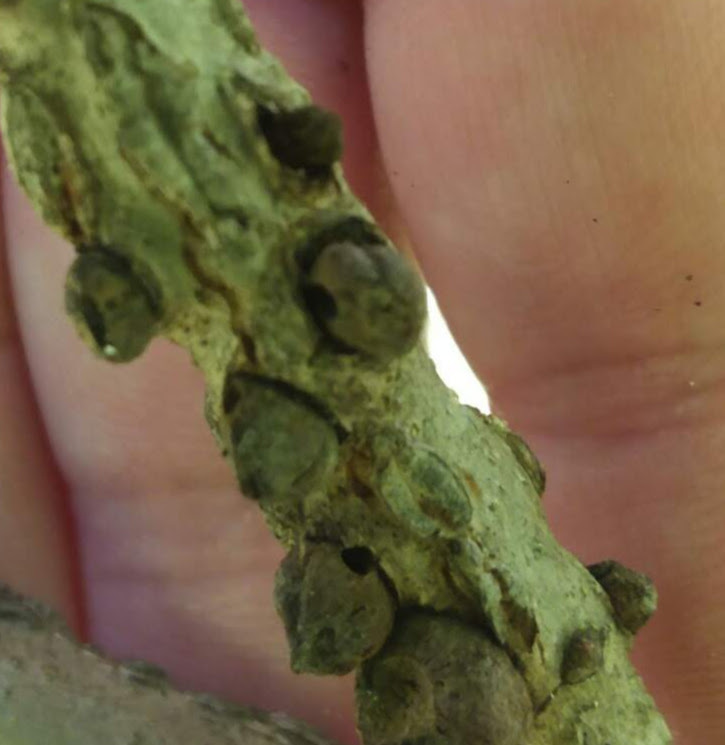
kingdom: Animalia
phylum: Arthropoda
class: Insecta
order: Hymenoptera
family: Cynipidae
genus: Disholcaspis
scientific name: Disholcaspis
